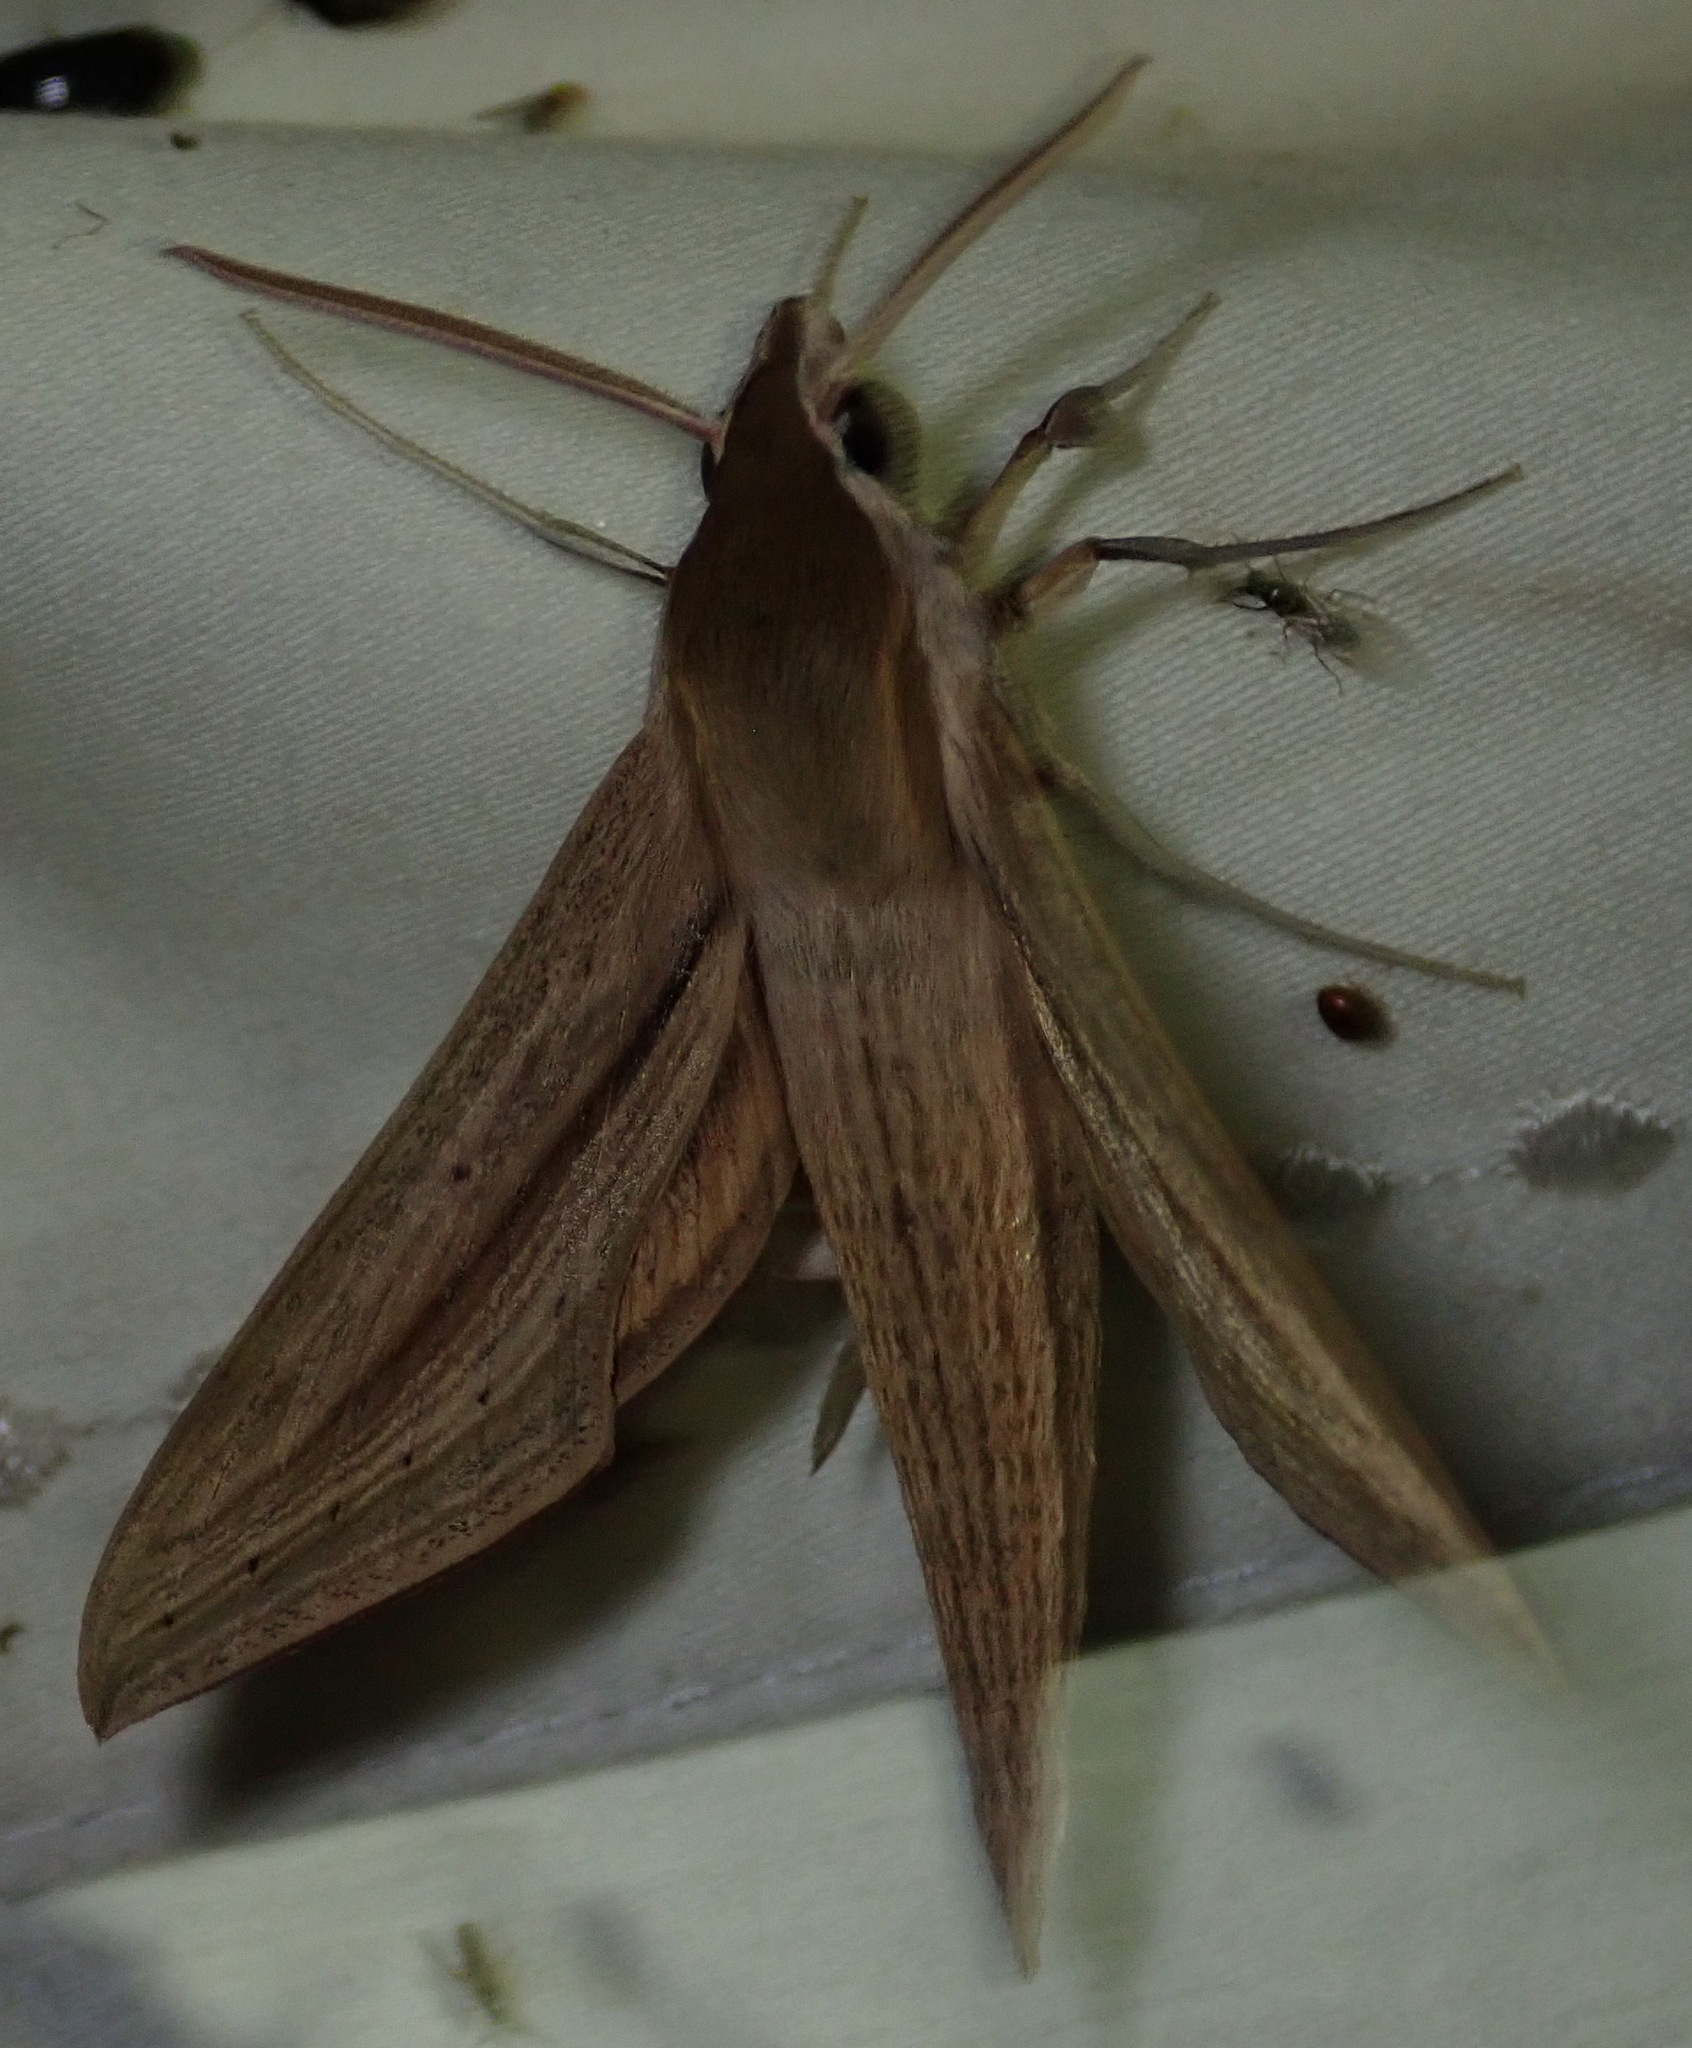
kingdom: Animalia
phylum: Arthropoda
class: Insecta
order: Lepidoptera
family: Sphingidae
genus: Hippotion
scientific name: Hippotion balsaminae
